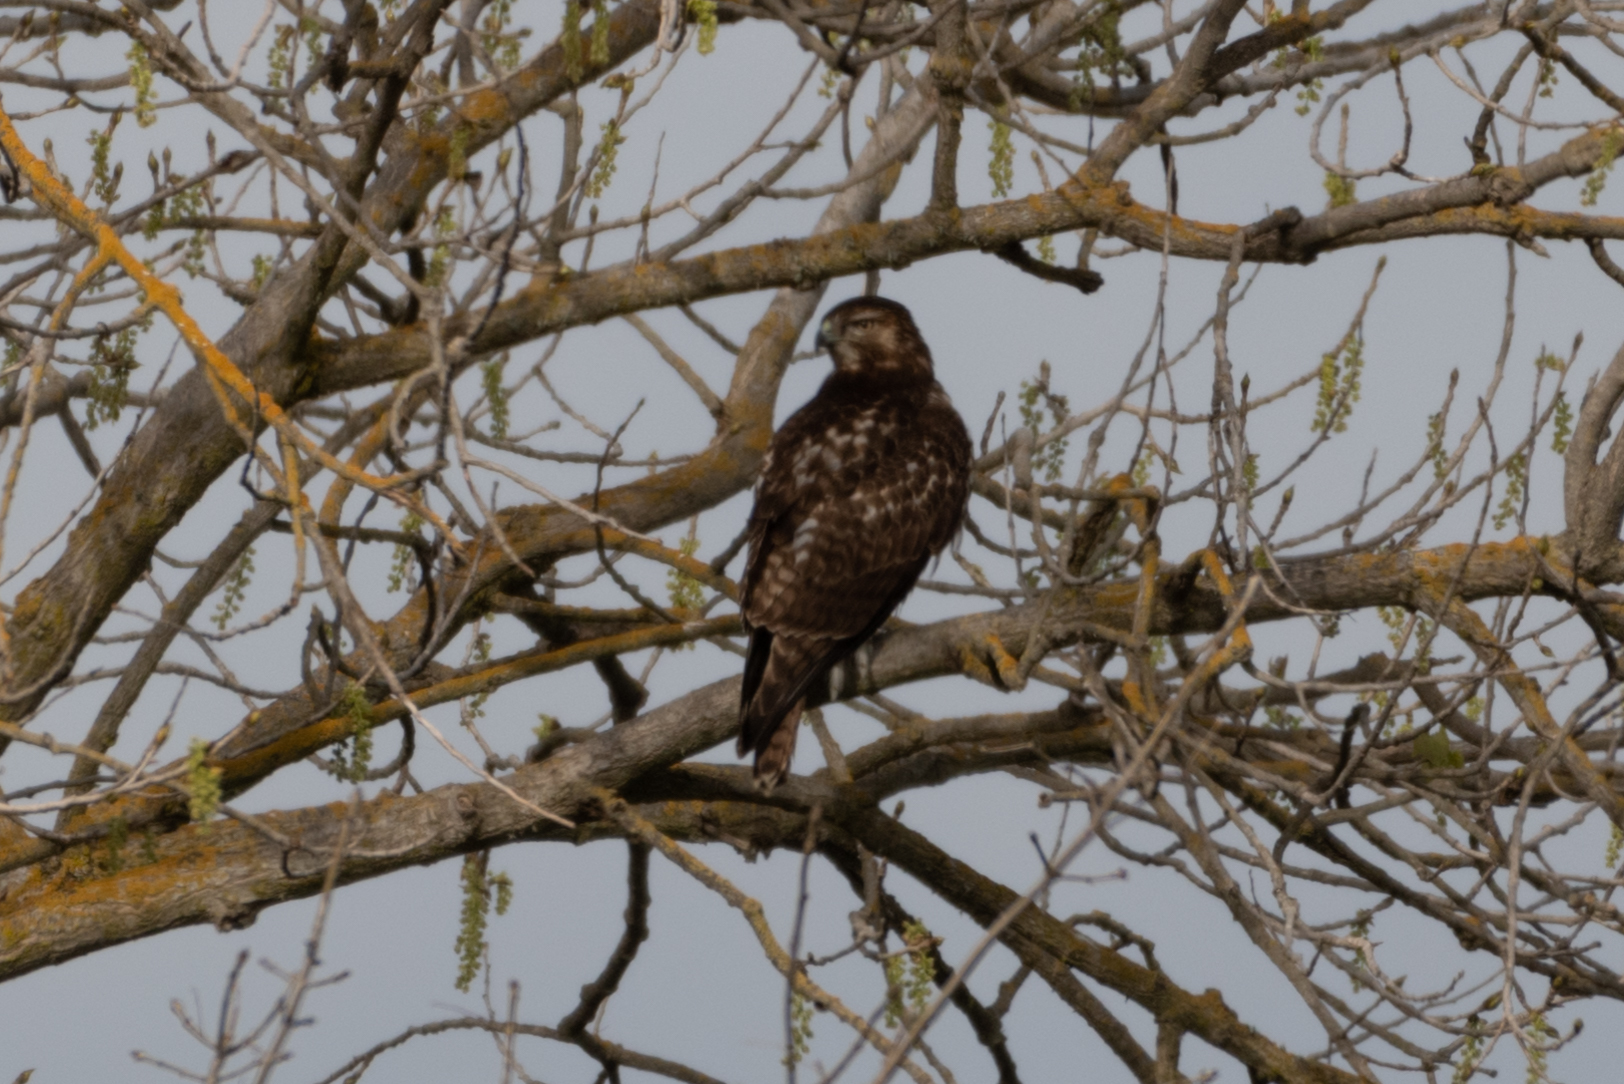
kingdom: Animalia
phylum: Chordata
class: Aves
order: Accipitriformes
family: Accipitridae
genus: Buteo
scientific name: Buteo jamaicensis
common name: Red-tailed hawk
